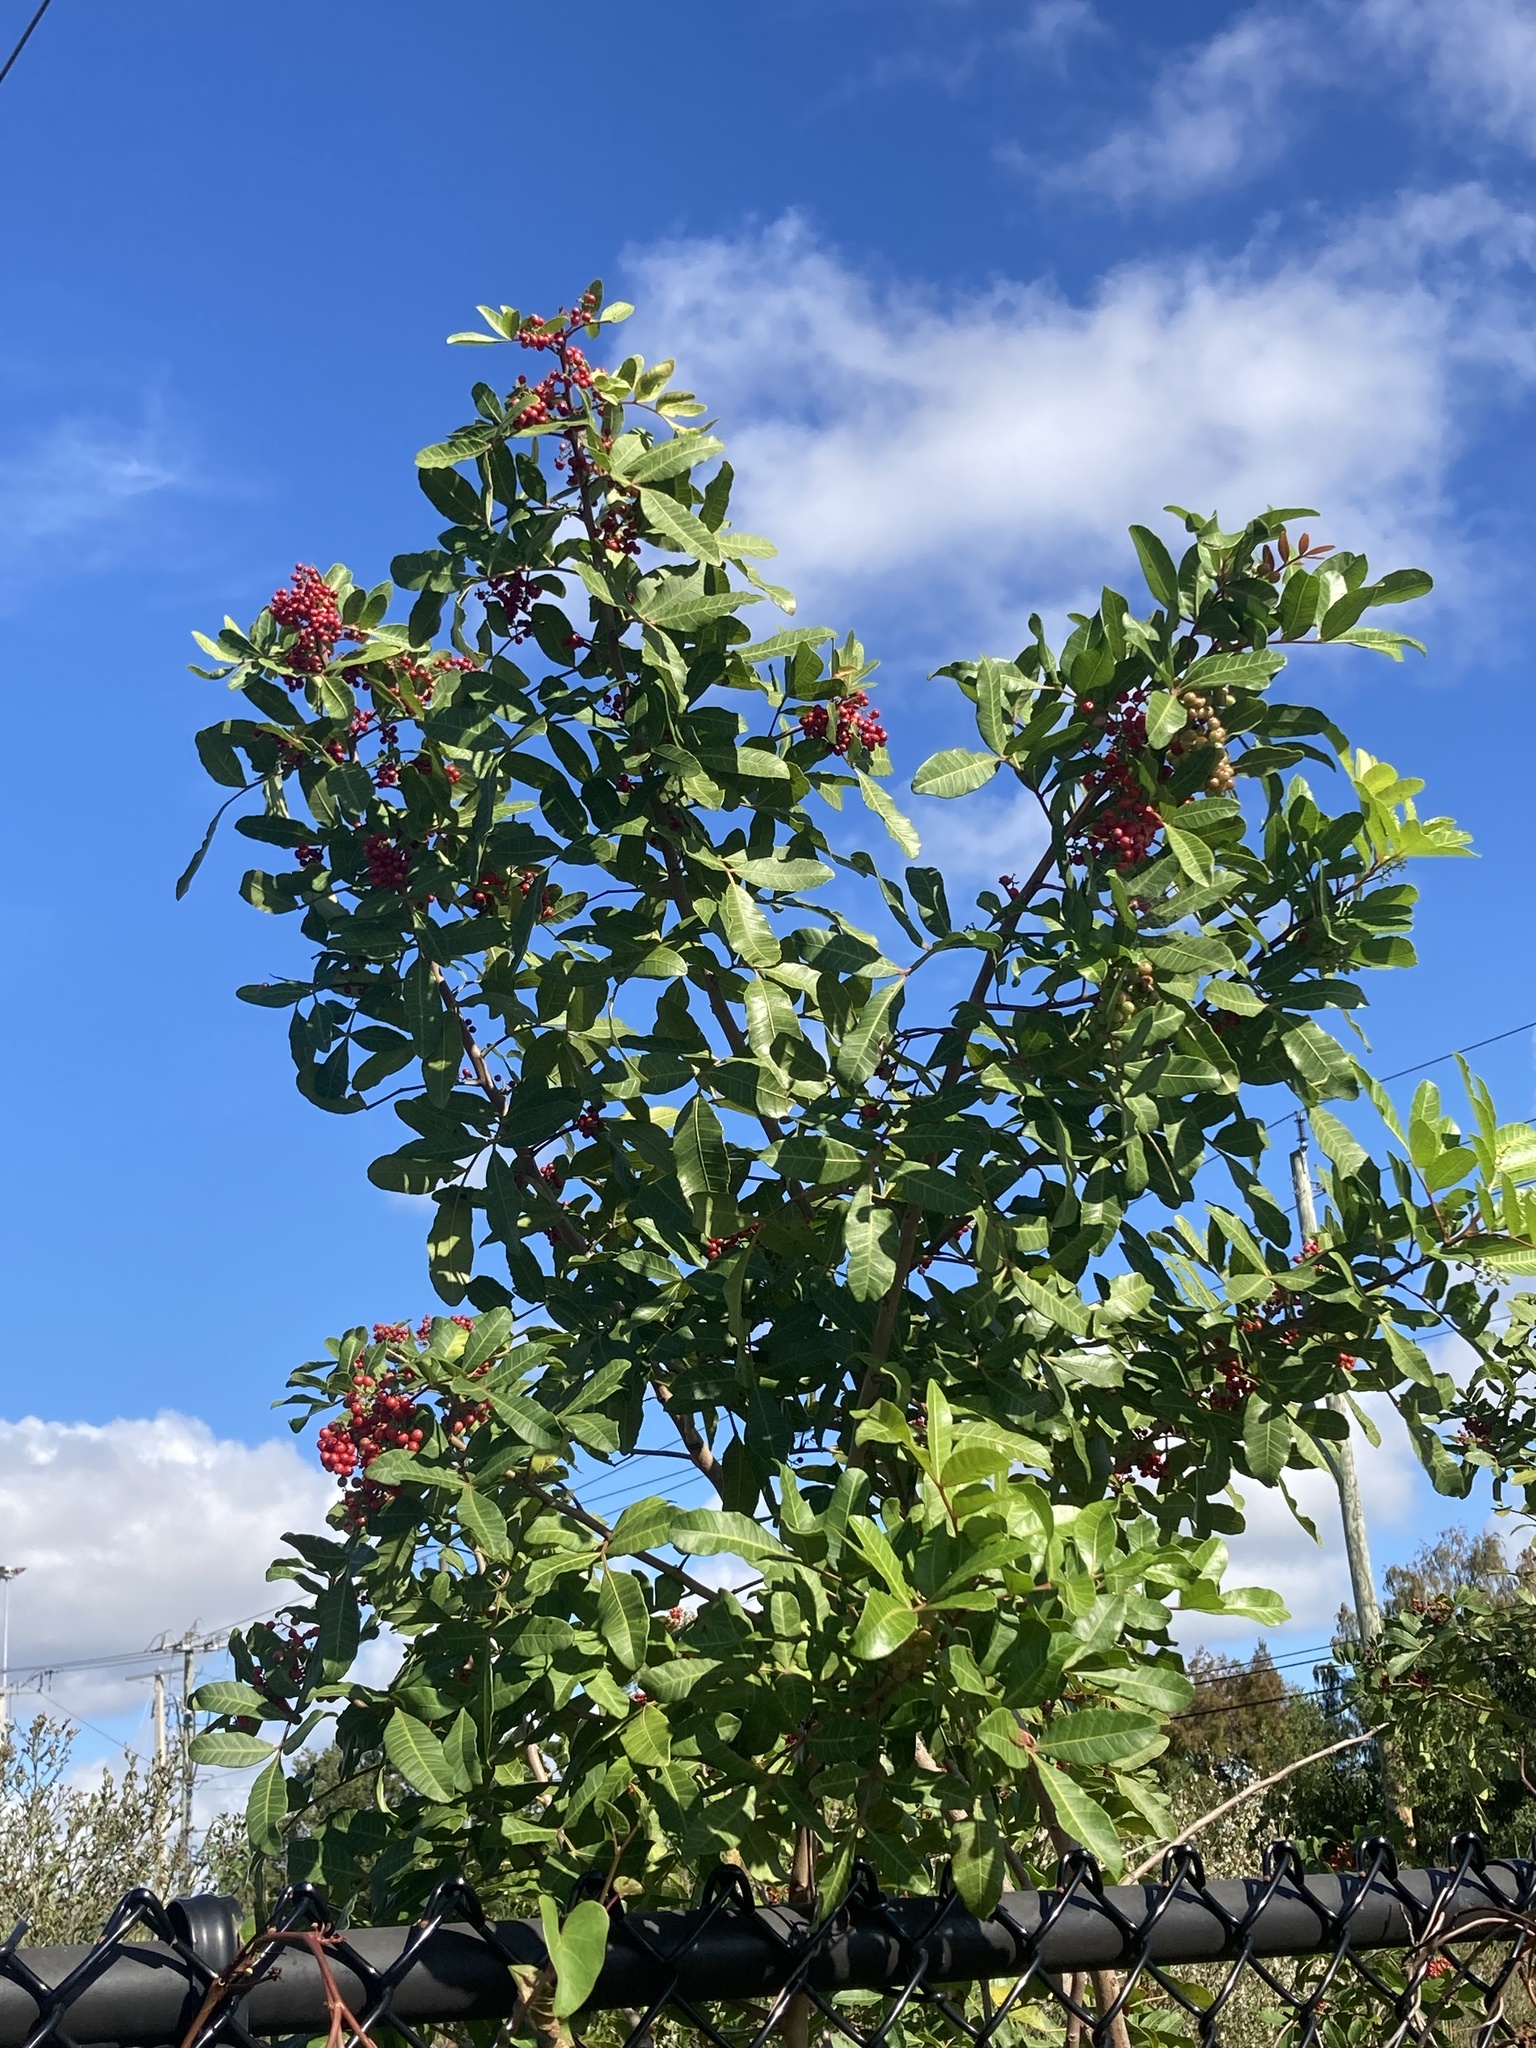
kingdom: Plantae
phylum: Tracheophyta
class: Magnoliopsida
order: Sapindales
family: Anacardiaceae
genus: Schinus
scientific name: Schinus terebinthifolia
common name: Brazilian peppertree
